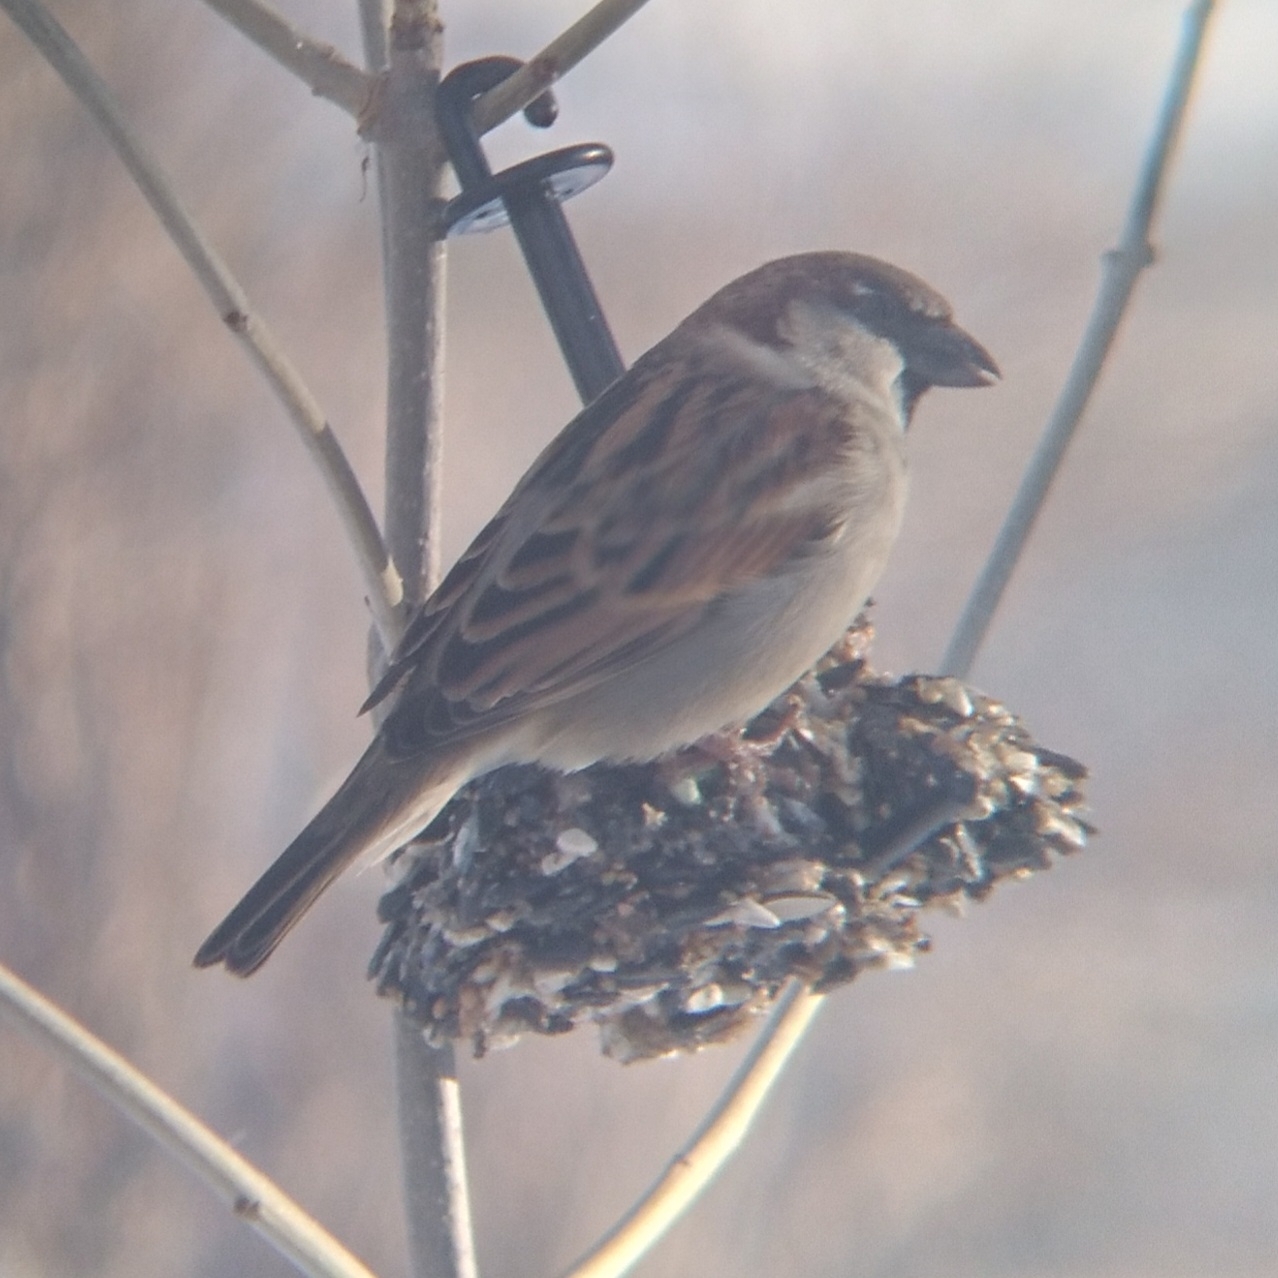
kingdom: Animalia
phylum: Chordata
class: Aves
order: Passeriformes
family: Passeridae
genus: Passer
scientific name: Passer domesticus
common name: House sparrow
